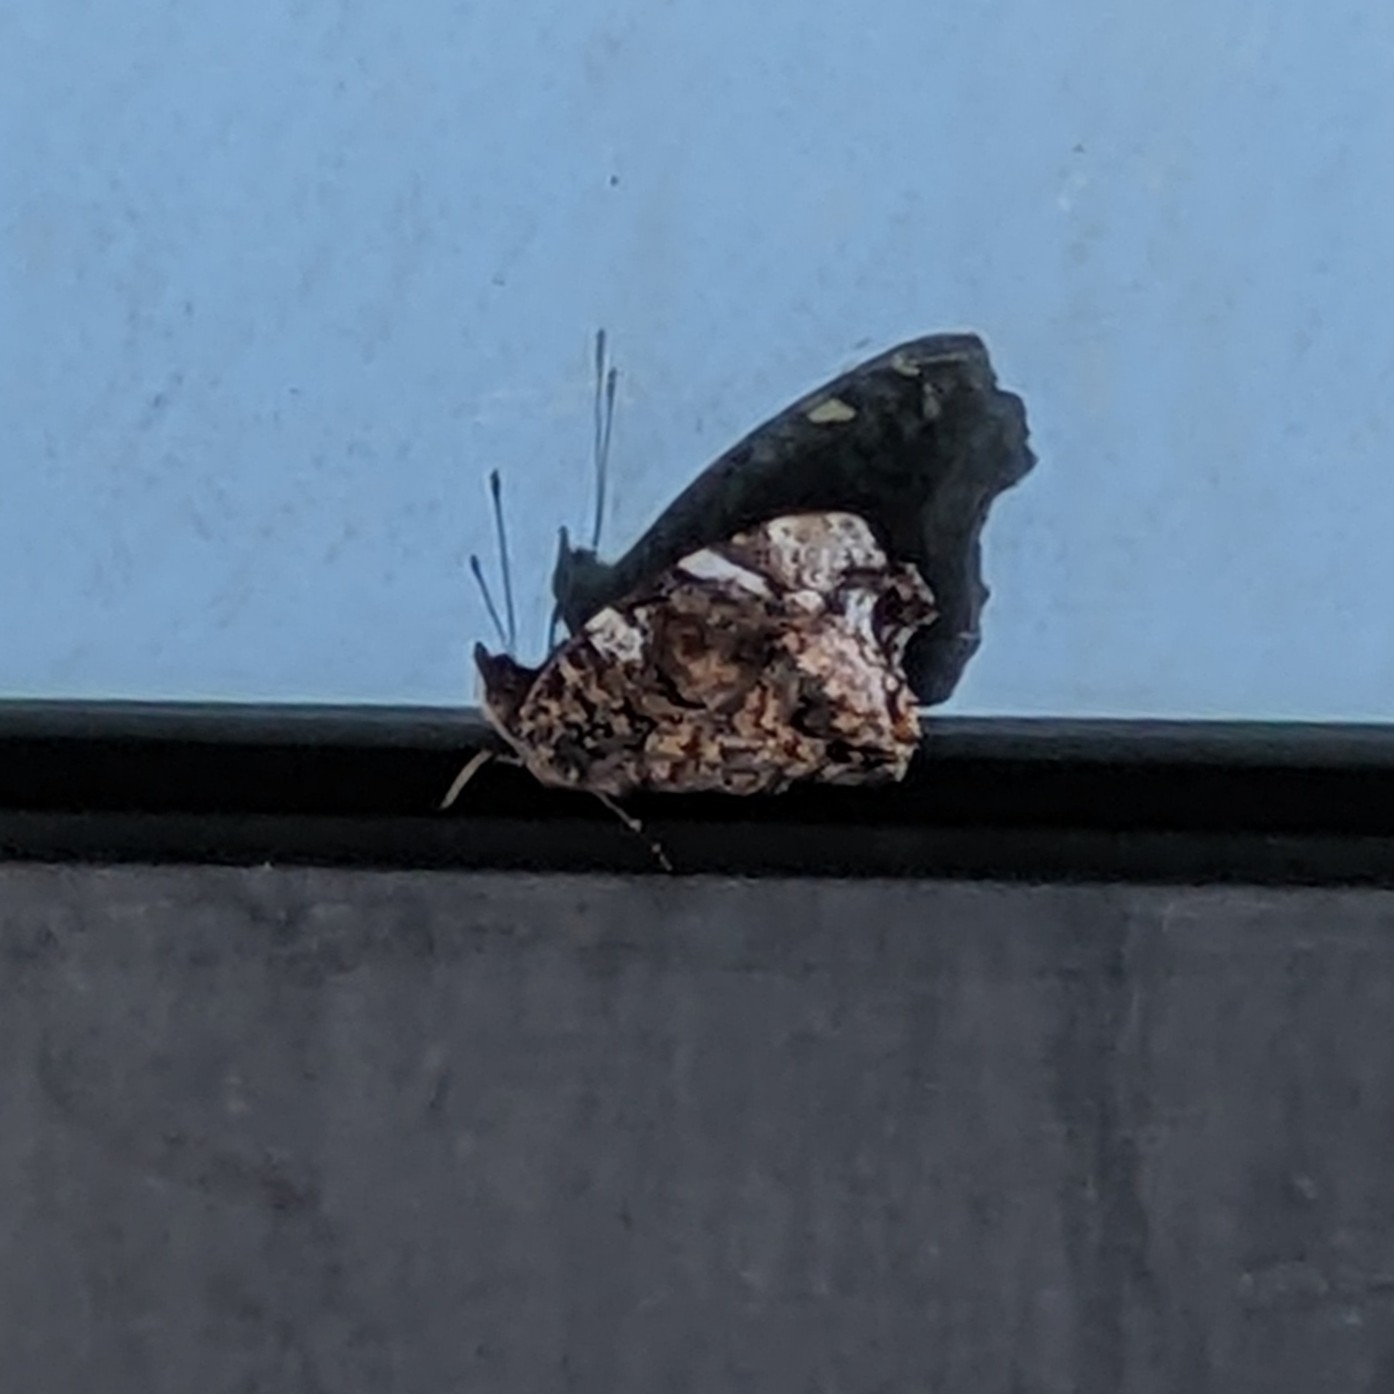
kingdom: Animalia
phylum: Arthropoda
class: Insecta
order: Lepidoptera
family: Nymphalidae
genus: Vanessa
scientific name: Vanessa atalanta
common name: Red admiral
